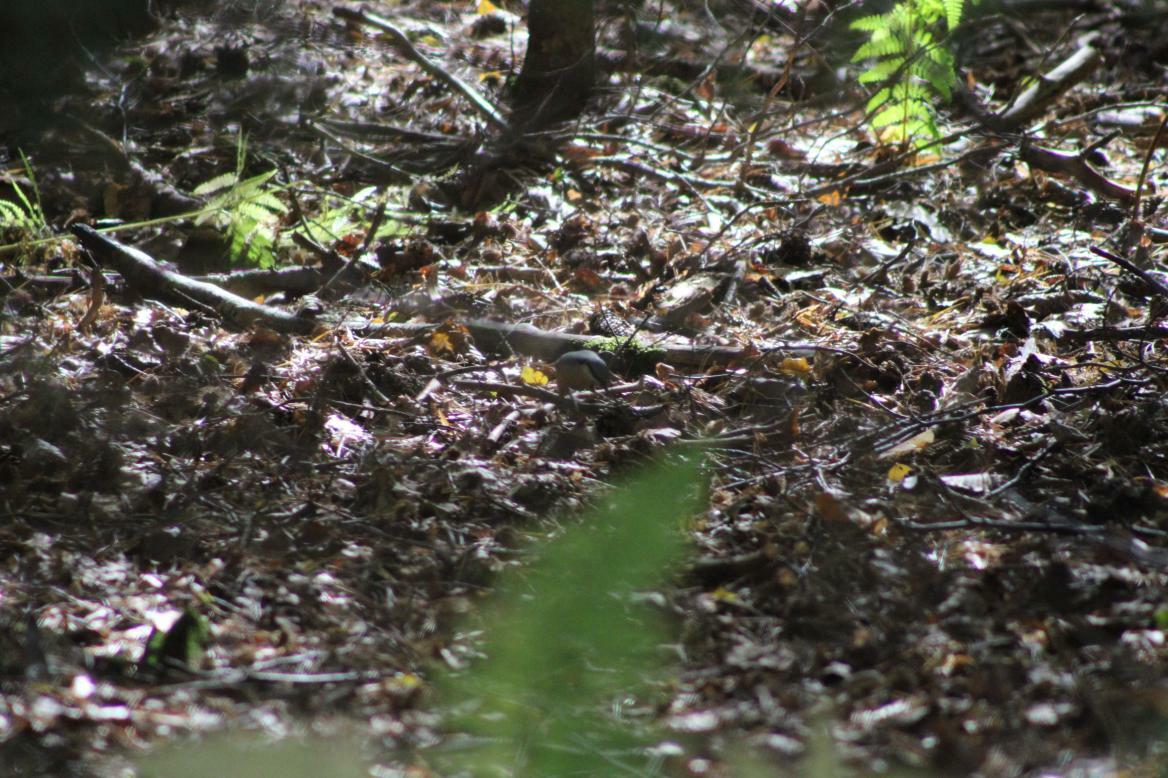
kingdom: Animalia
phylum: Chordata
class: Aves
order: Passeriformes
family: Sittidae
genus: Sitta
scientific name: Sitta europaea
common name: Eurasian nuthatch
